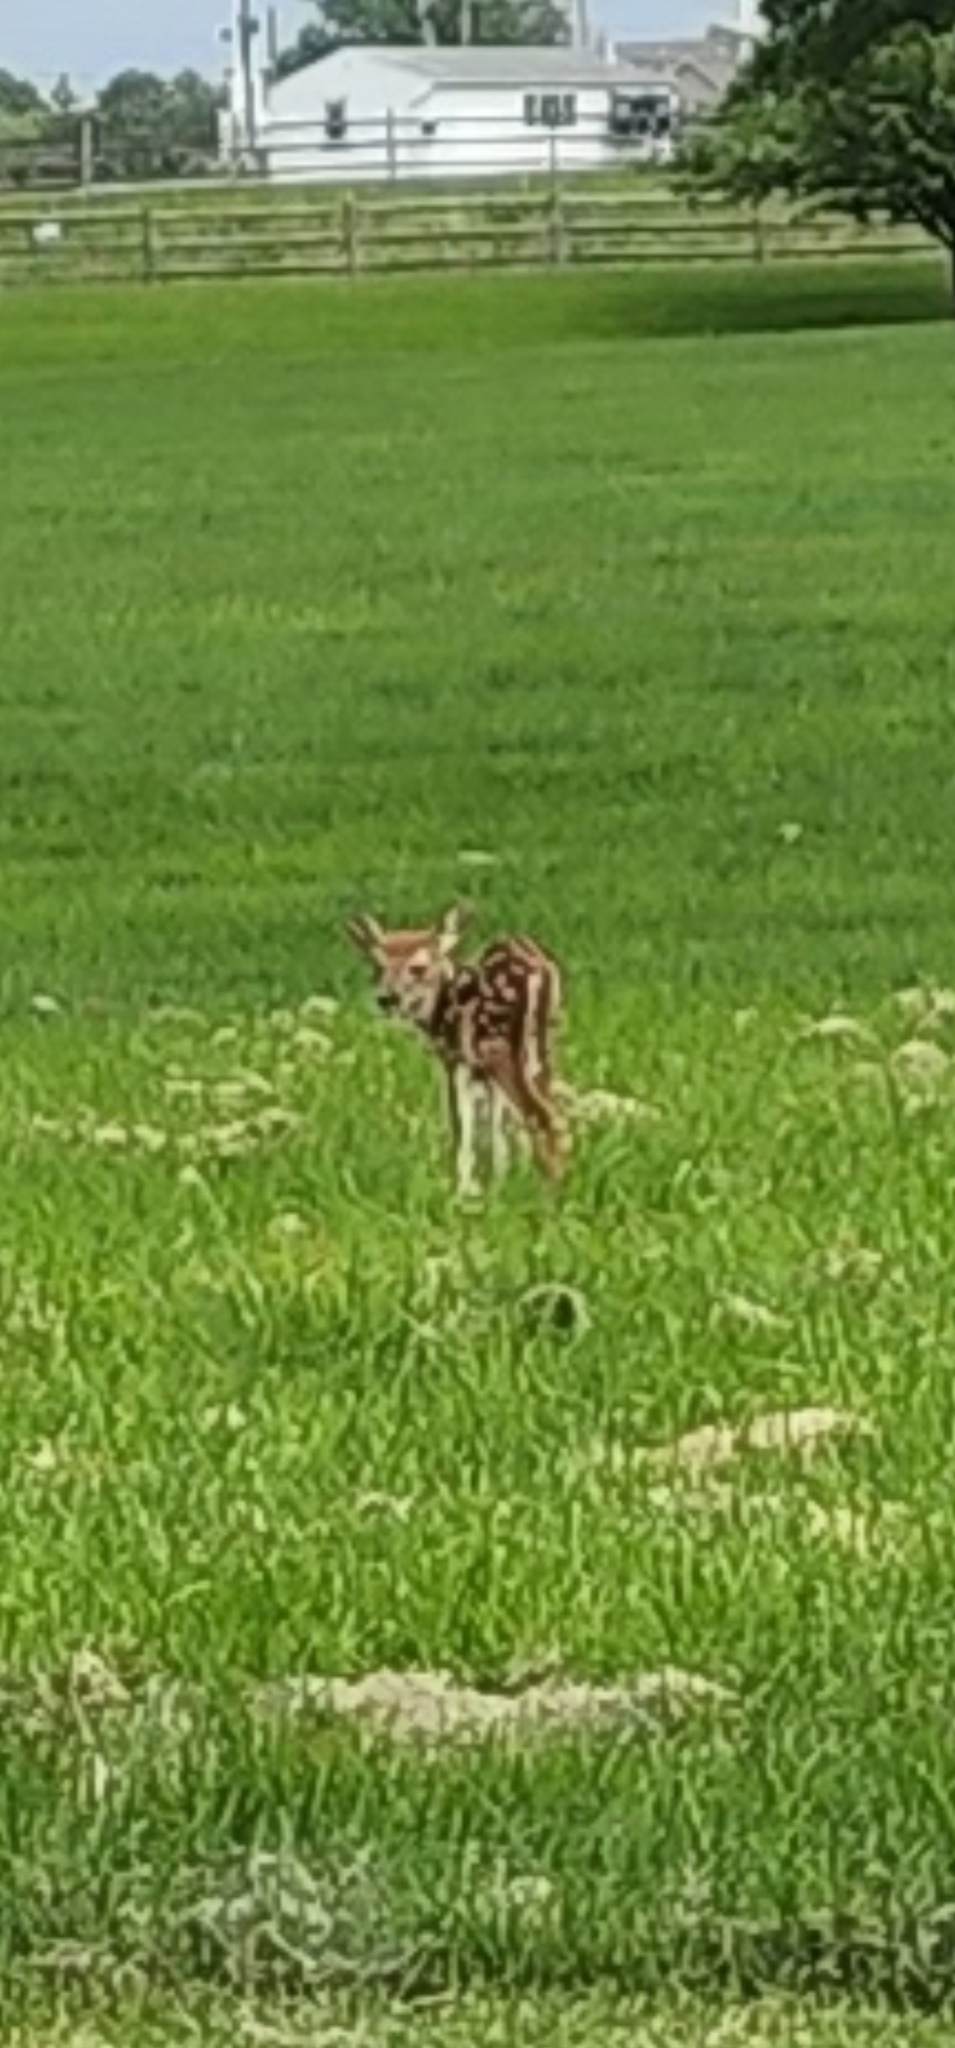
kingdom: Animalia
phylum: Chordata
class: Mammalia
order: Artiodactyla
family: Cervidae
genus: Odocoileus
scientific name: Odocoileus virginianus
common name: White-tailed deer
